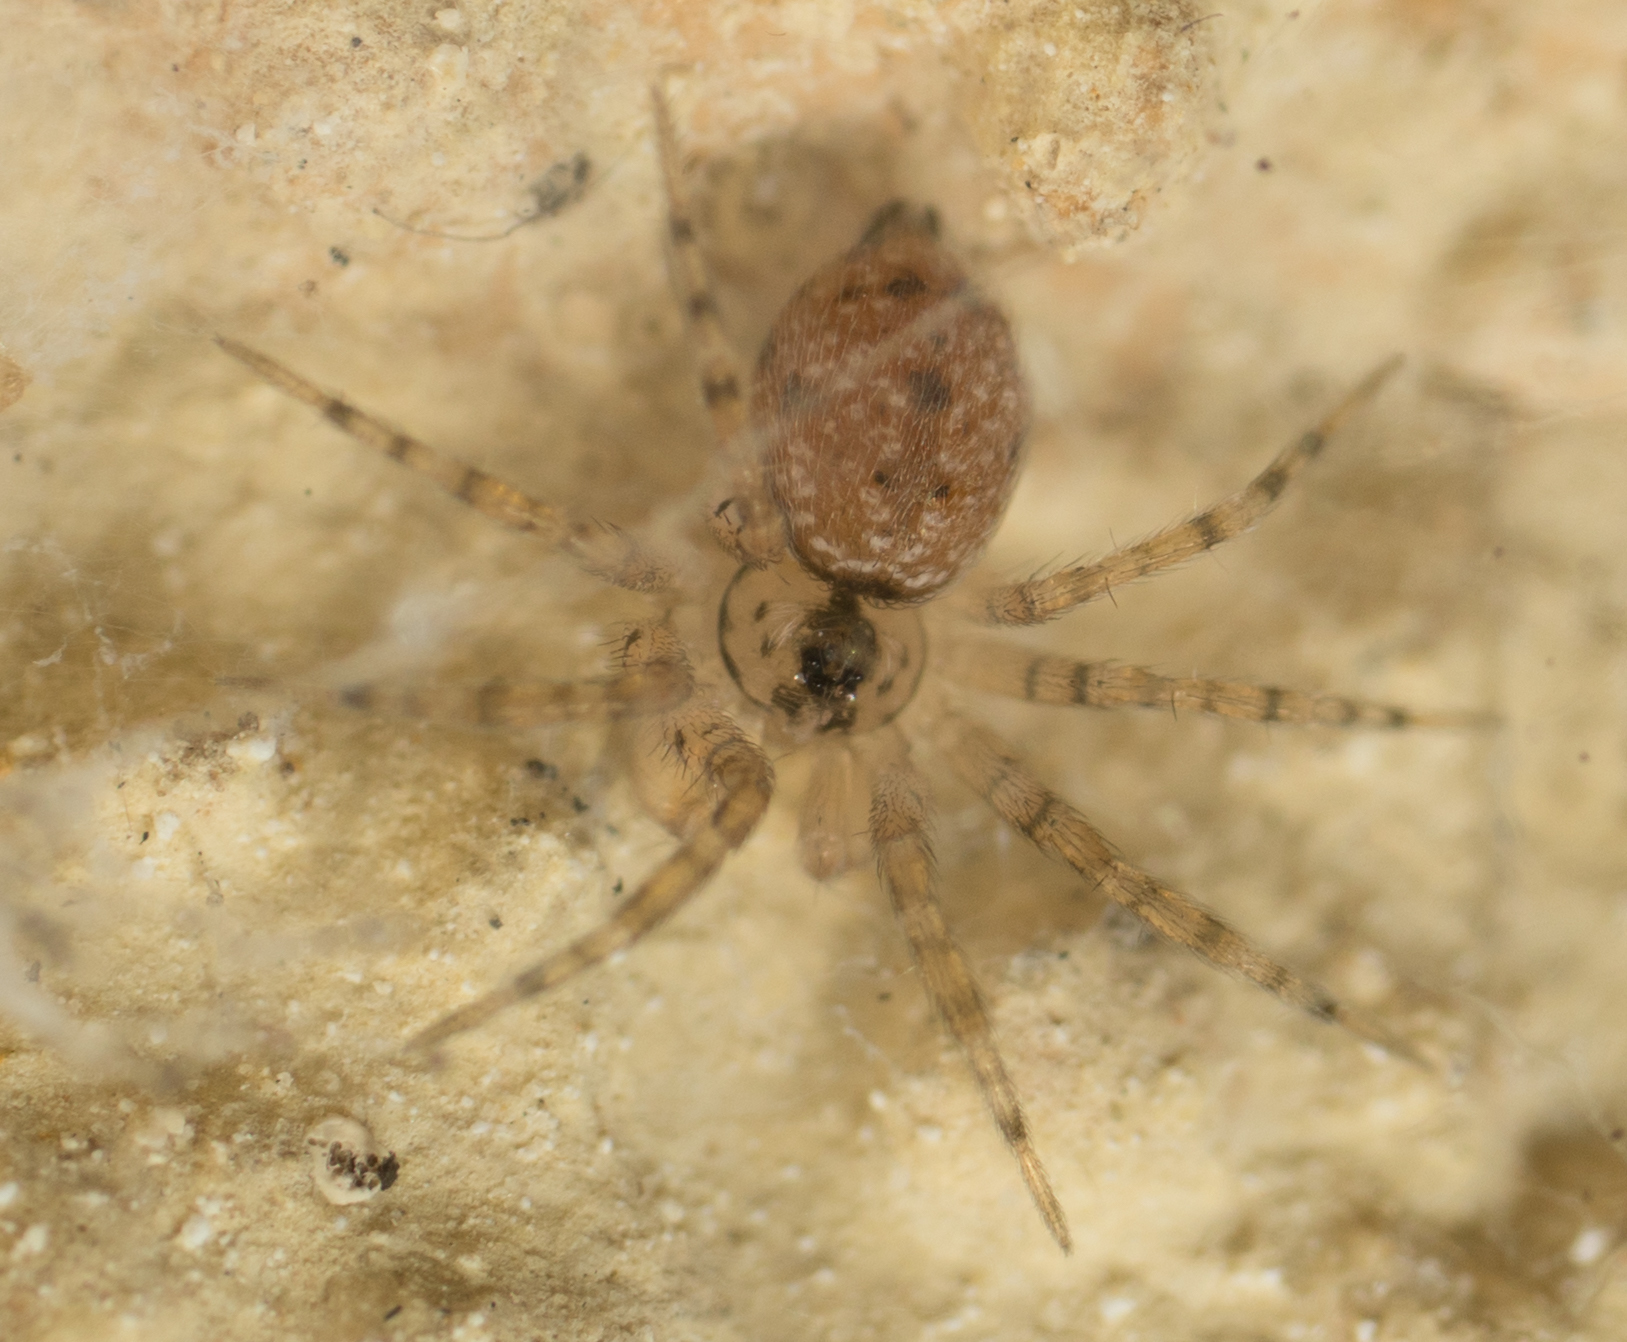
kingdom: Animalia
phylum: Arthropoda
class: Arachnida
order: Araneae
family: Oecobiidae
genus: Oecobius
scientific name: Oecobius navus
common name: Flatmesh weaver
